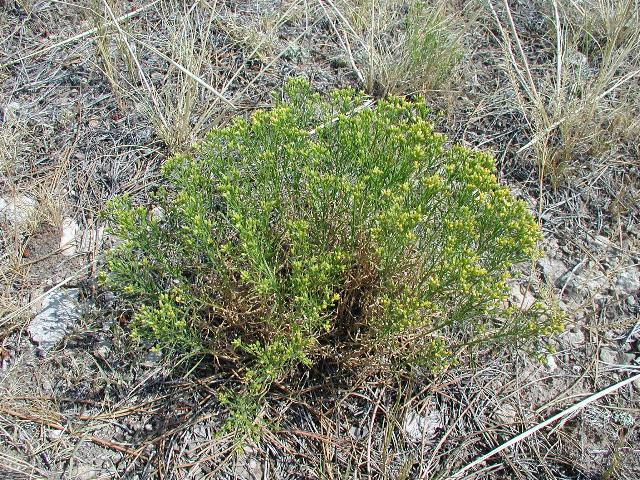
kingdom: Plantae
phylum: Tracheophyta
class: Magnoliopsida
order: Asterales
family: Asteraceae
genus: Gutierrezia
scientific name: Gutierrezia sarothrae
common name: Broom snakeweed
